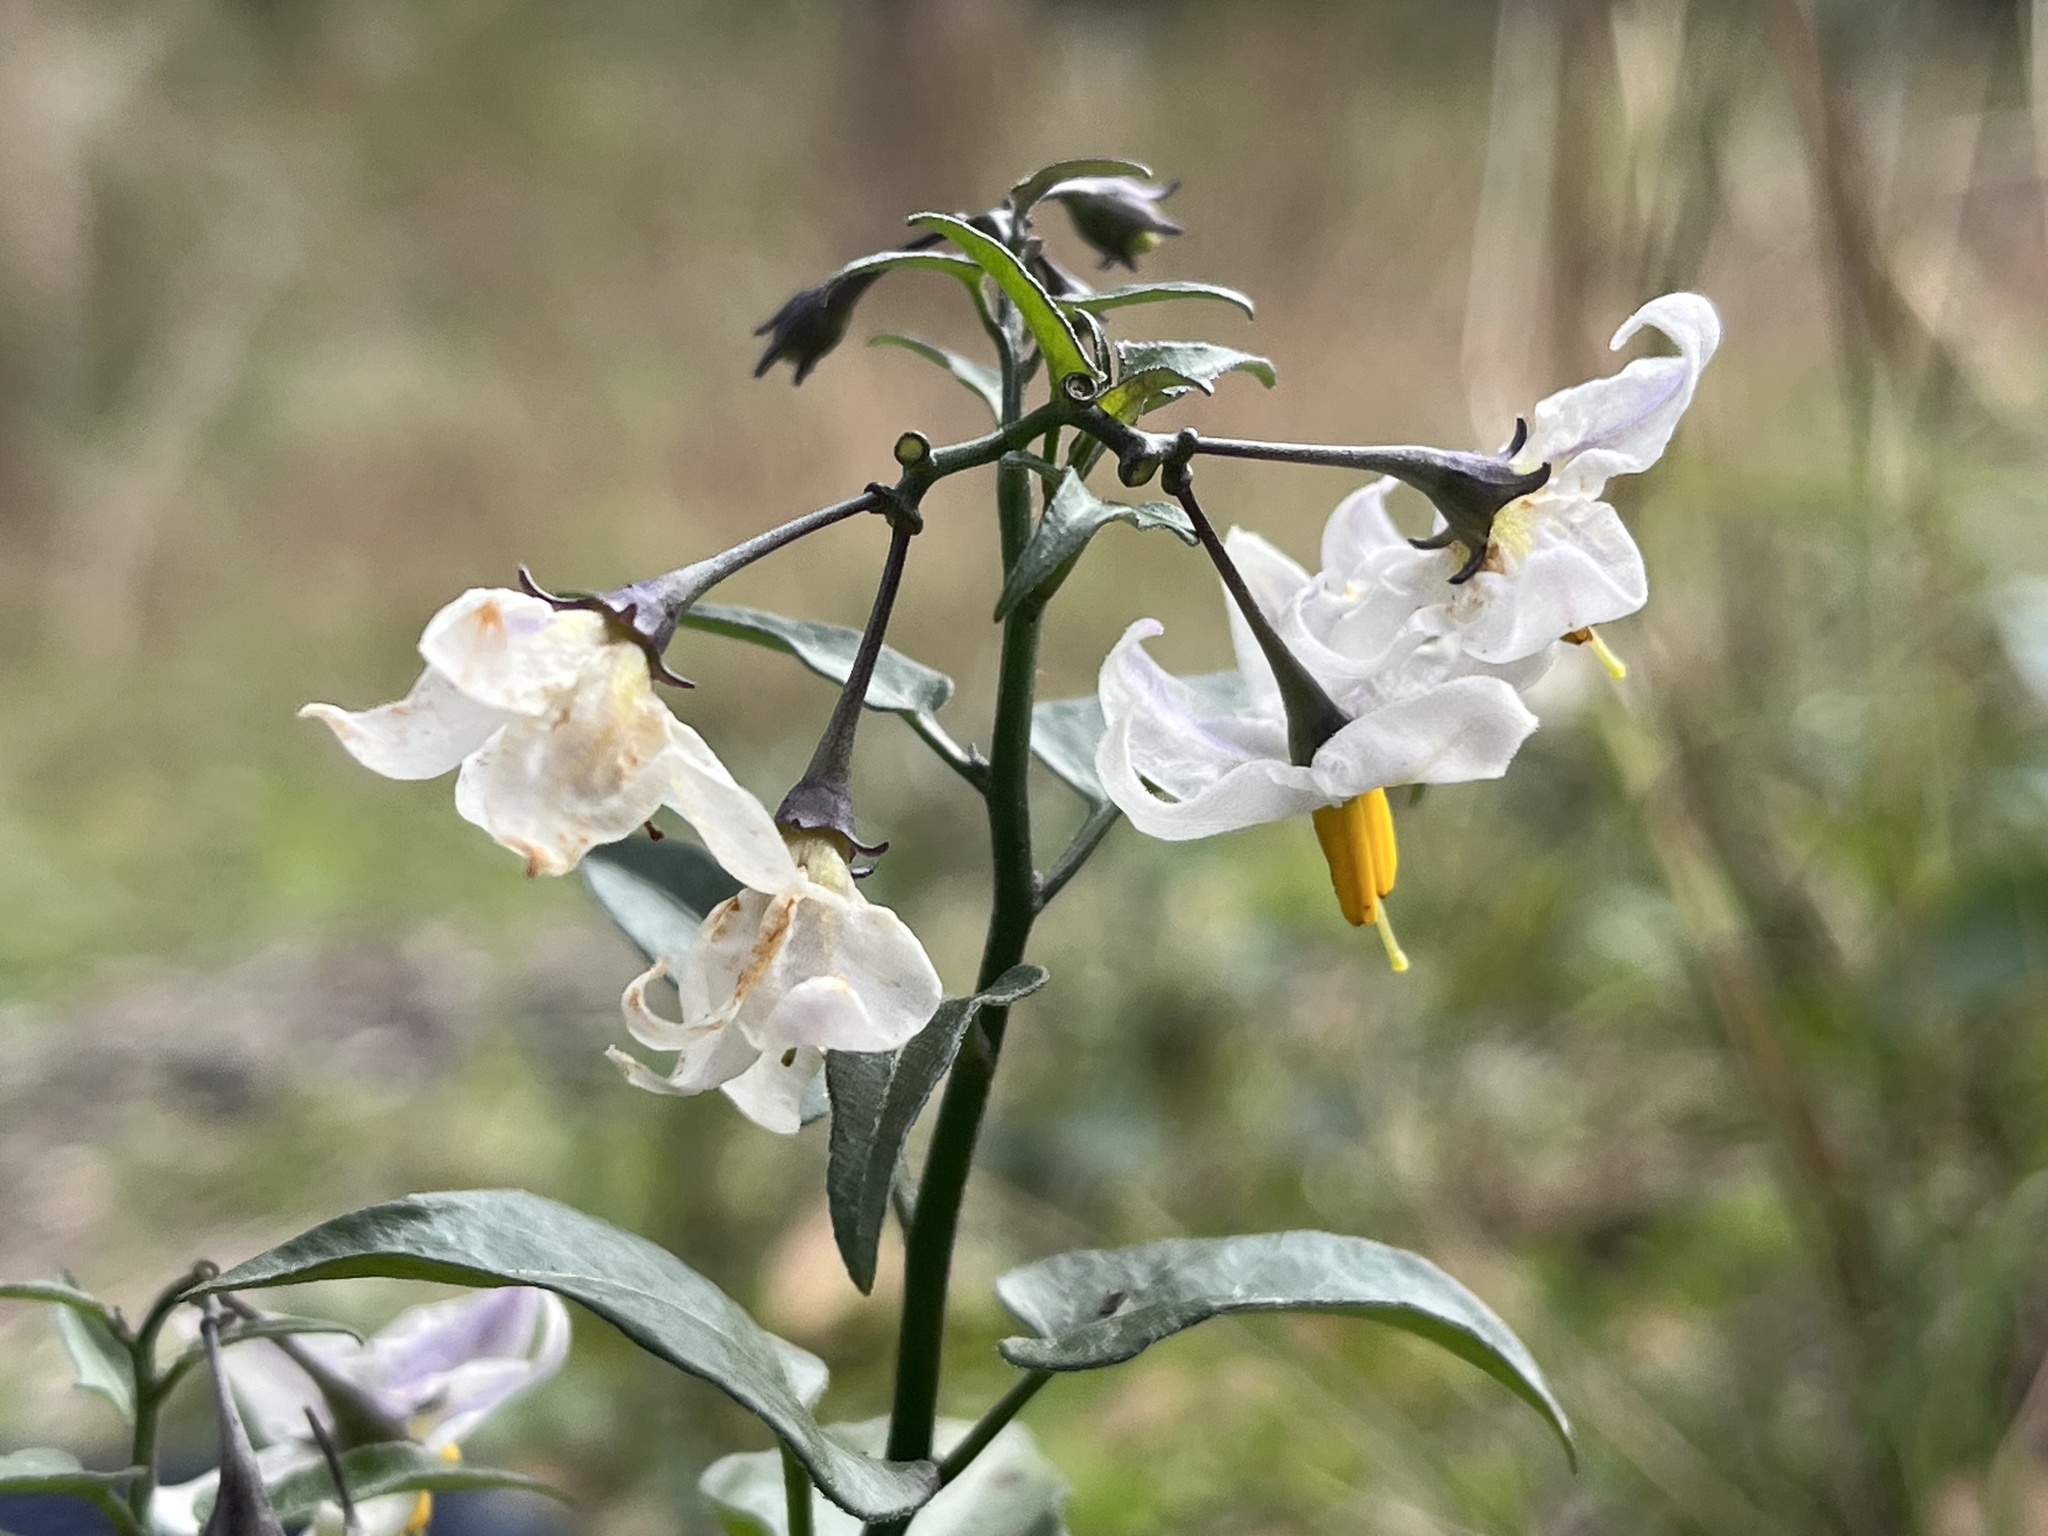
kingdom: Plantae
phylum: Tracheophyta
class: Magnoliopsida
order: Solanales
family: Solanaceae
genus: Solanum
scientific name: Solanum triquetrum
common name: Texas nightshade
